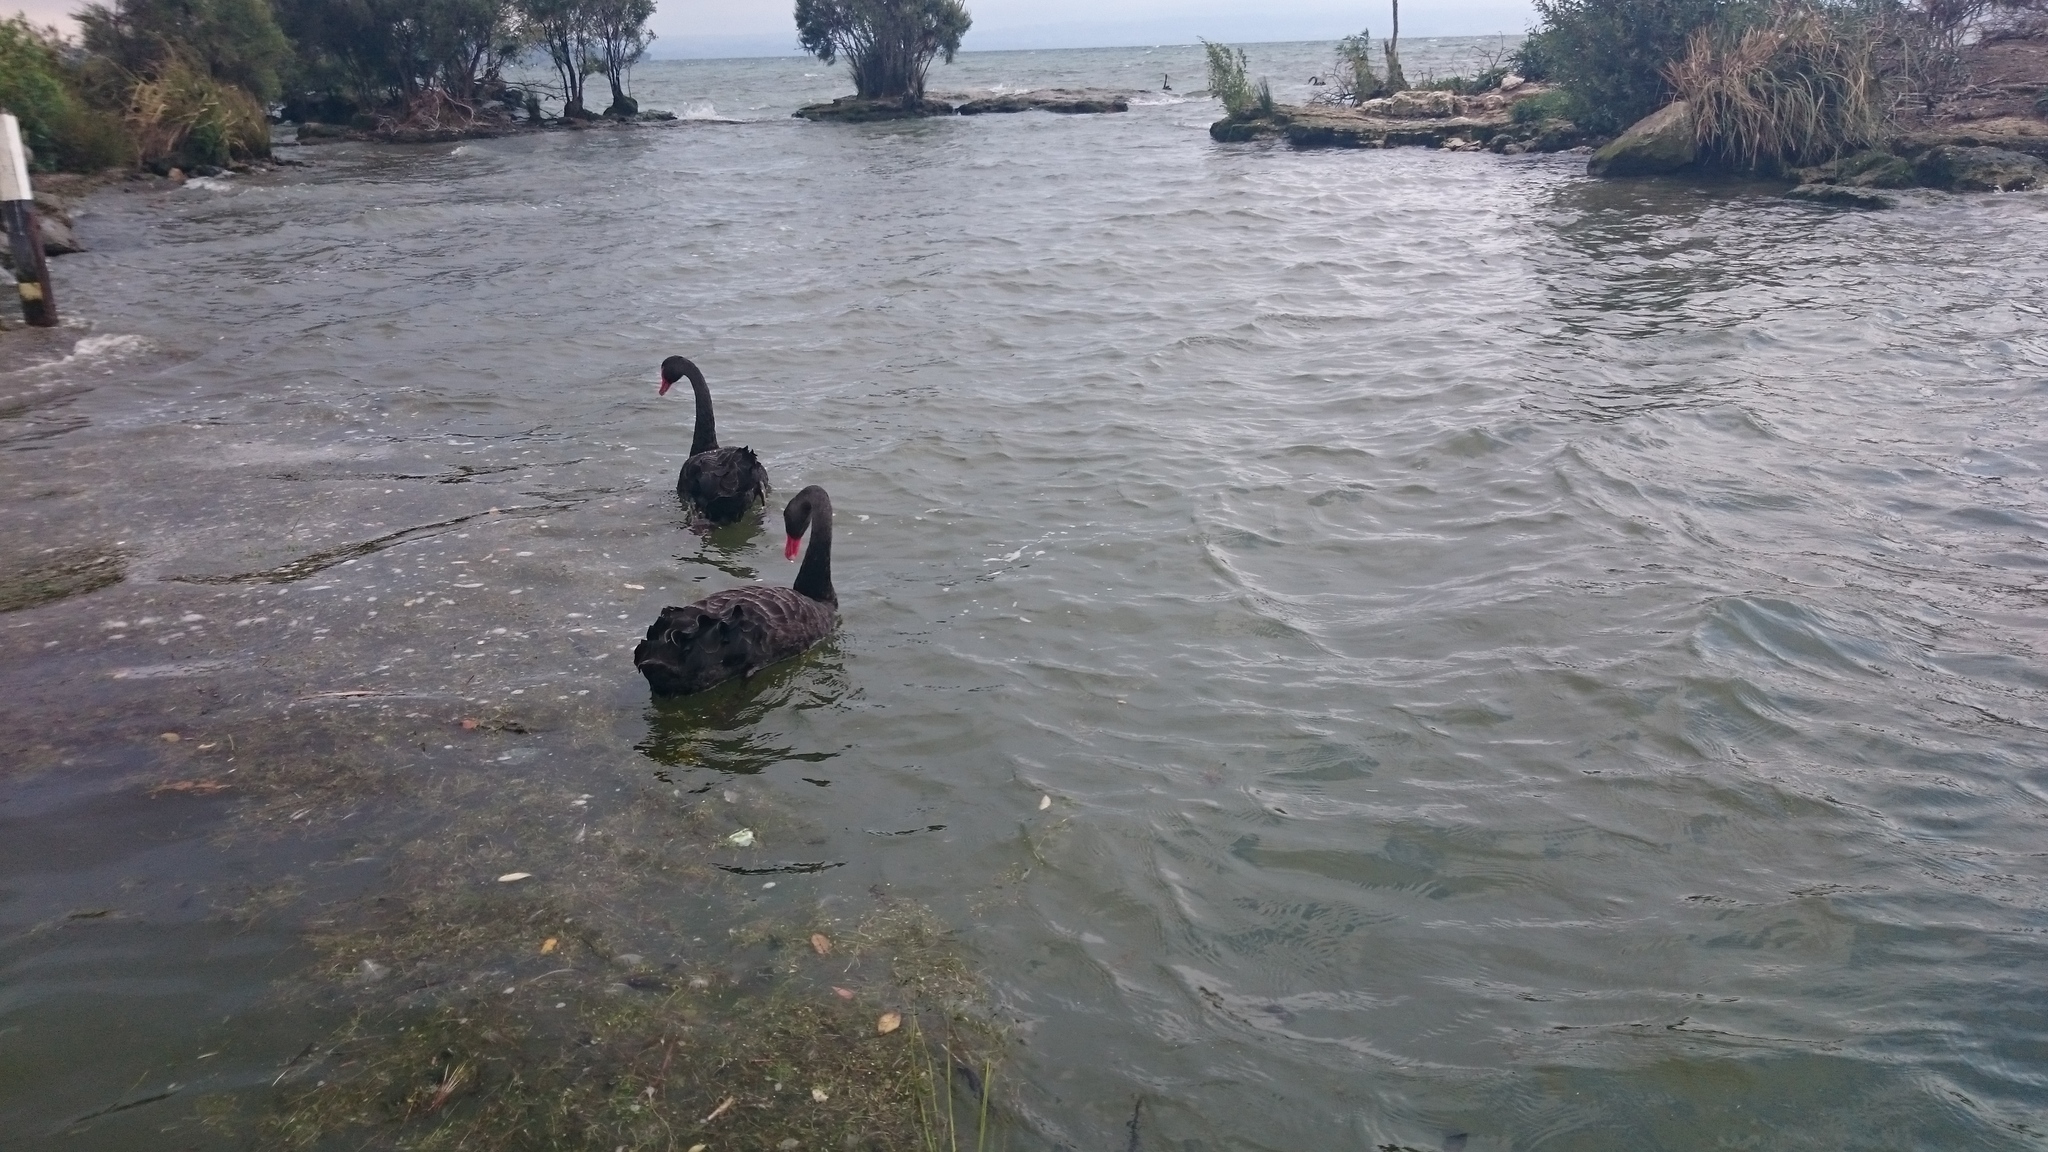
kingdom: Animalia
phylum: Chordata
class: Aves
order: Anseriformes
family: Anatidae
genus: Cygnus
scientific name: Cygnus atratus
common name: Black swan
